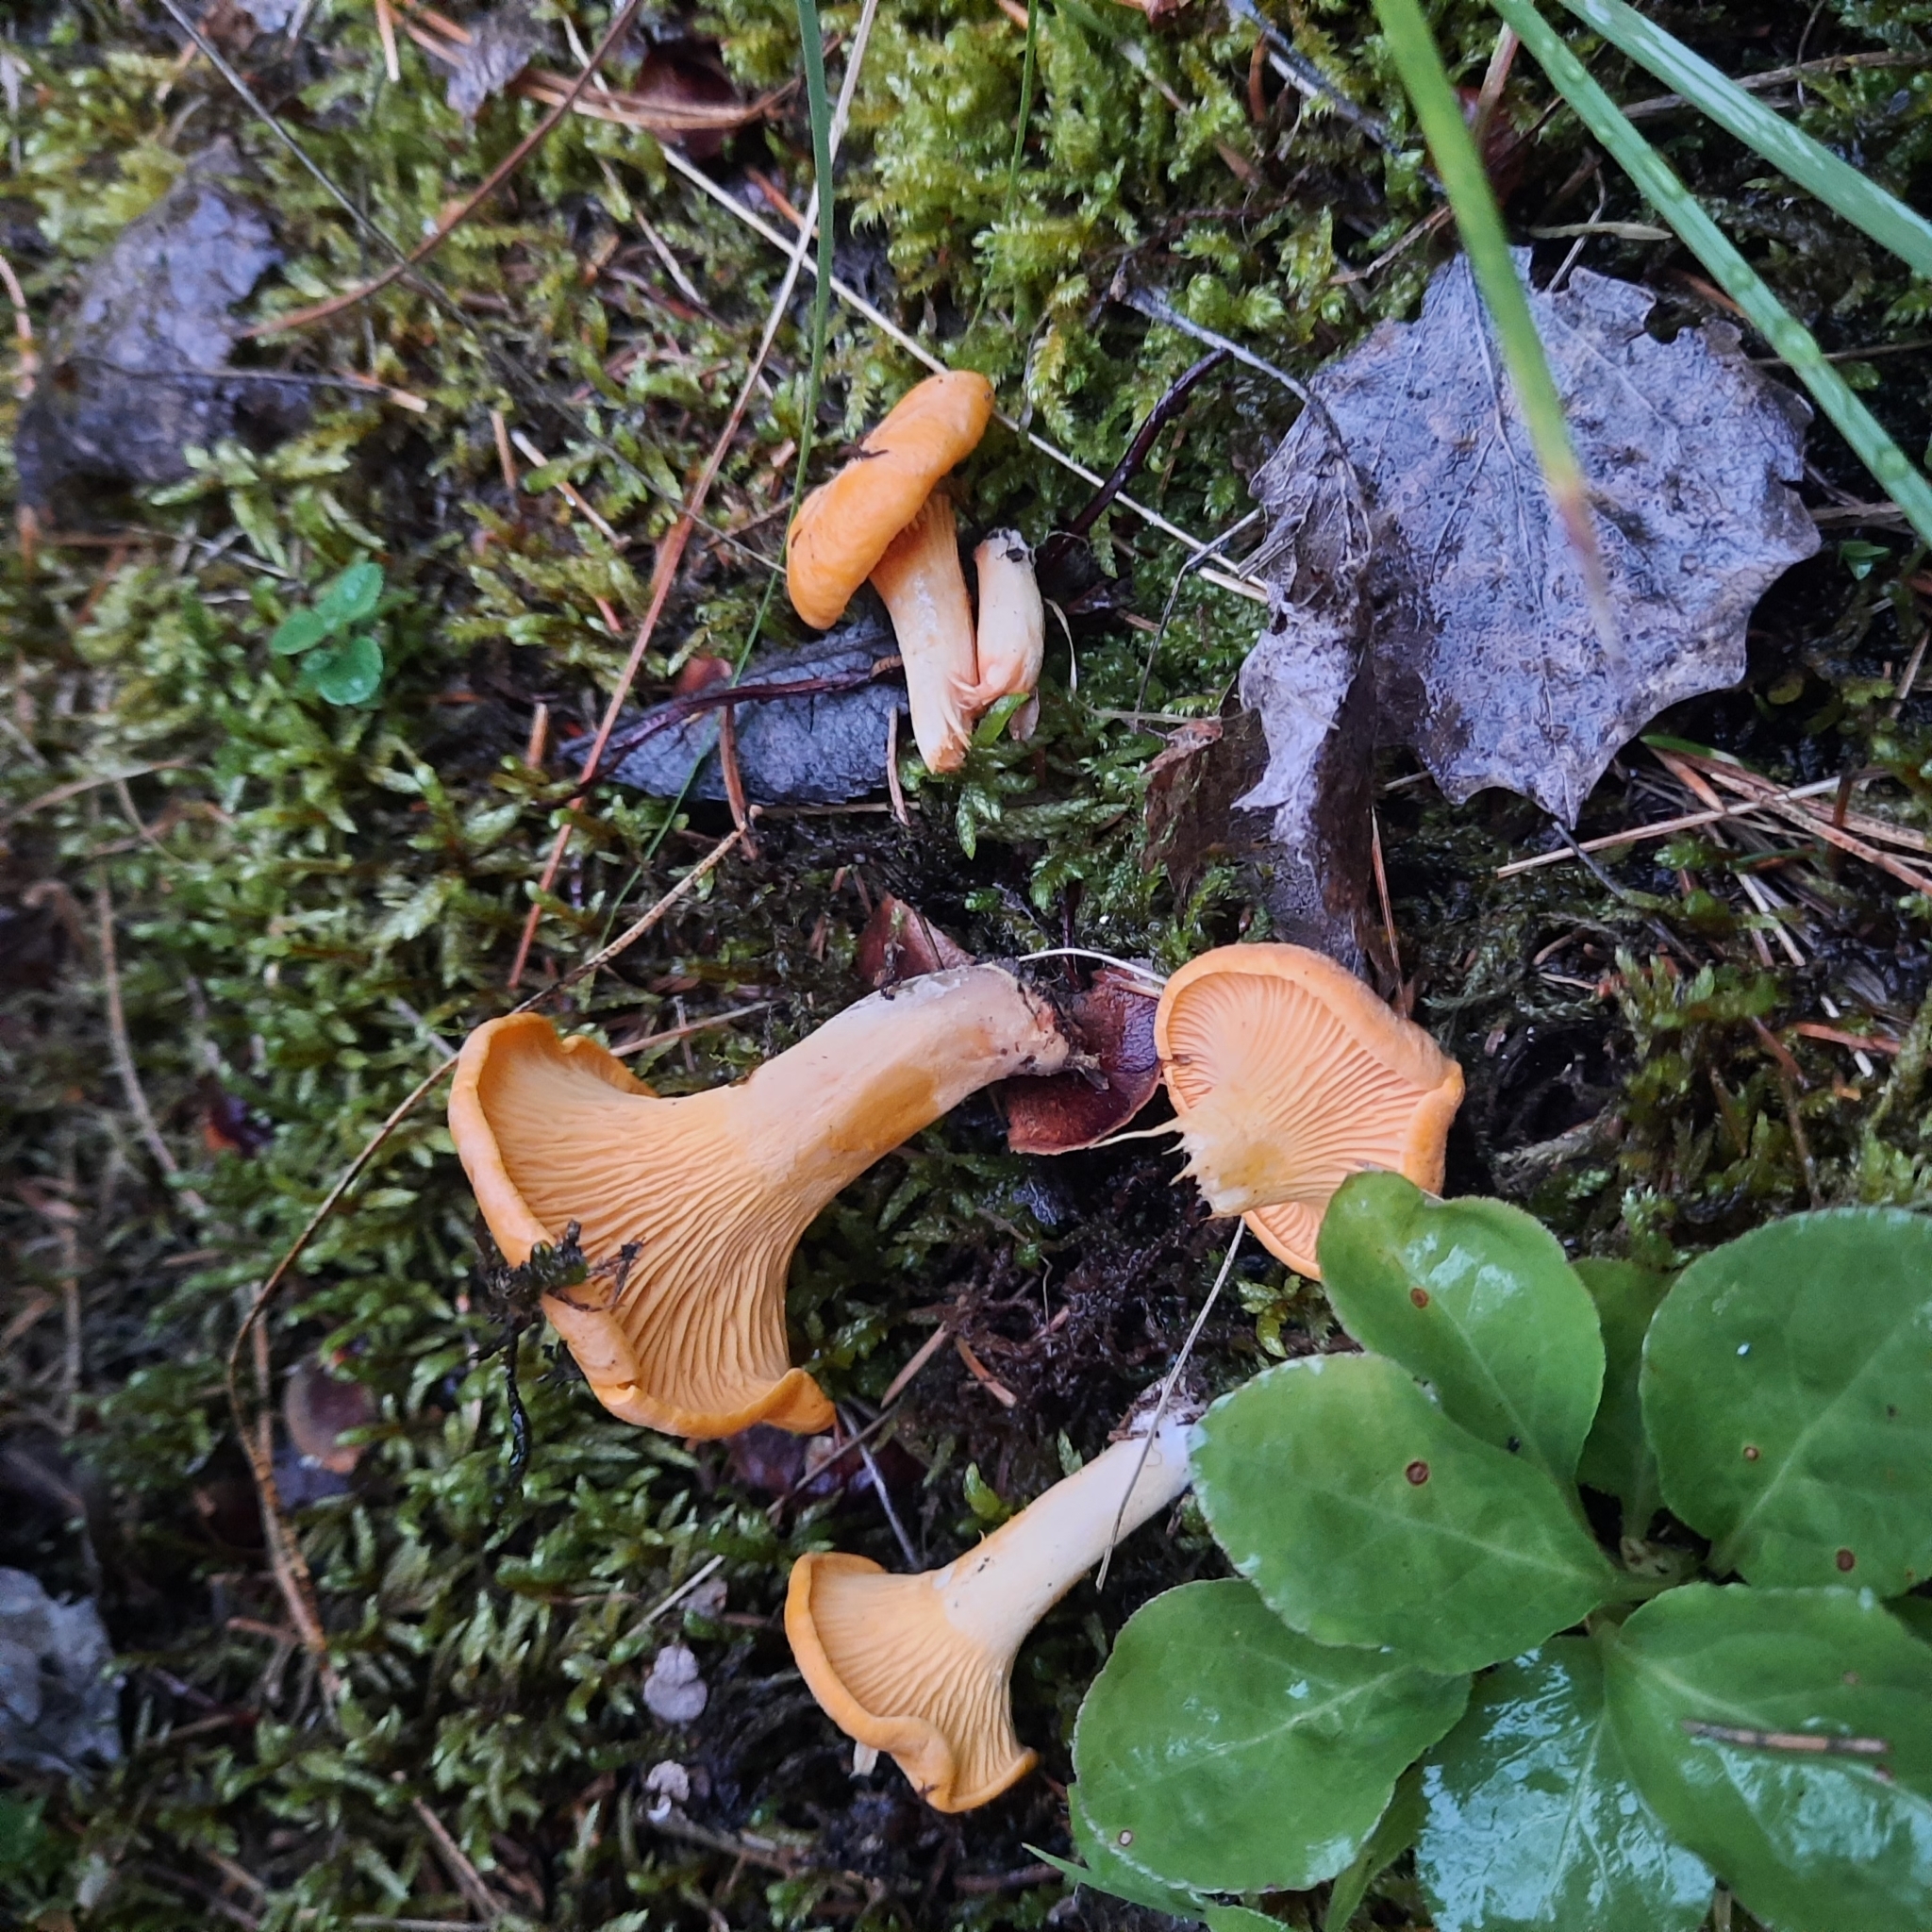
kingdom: Fungi
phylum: Basidiomycota
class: Agaricomycetes
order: Cantharellales
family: Hydnaceae
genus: Cantharellus
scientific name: Cantharellus cibarius
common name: Chanterelle
